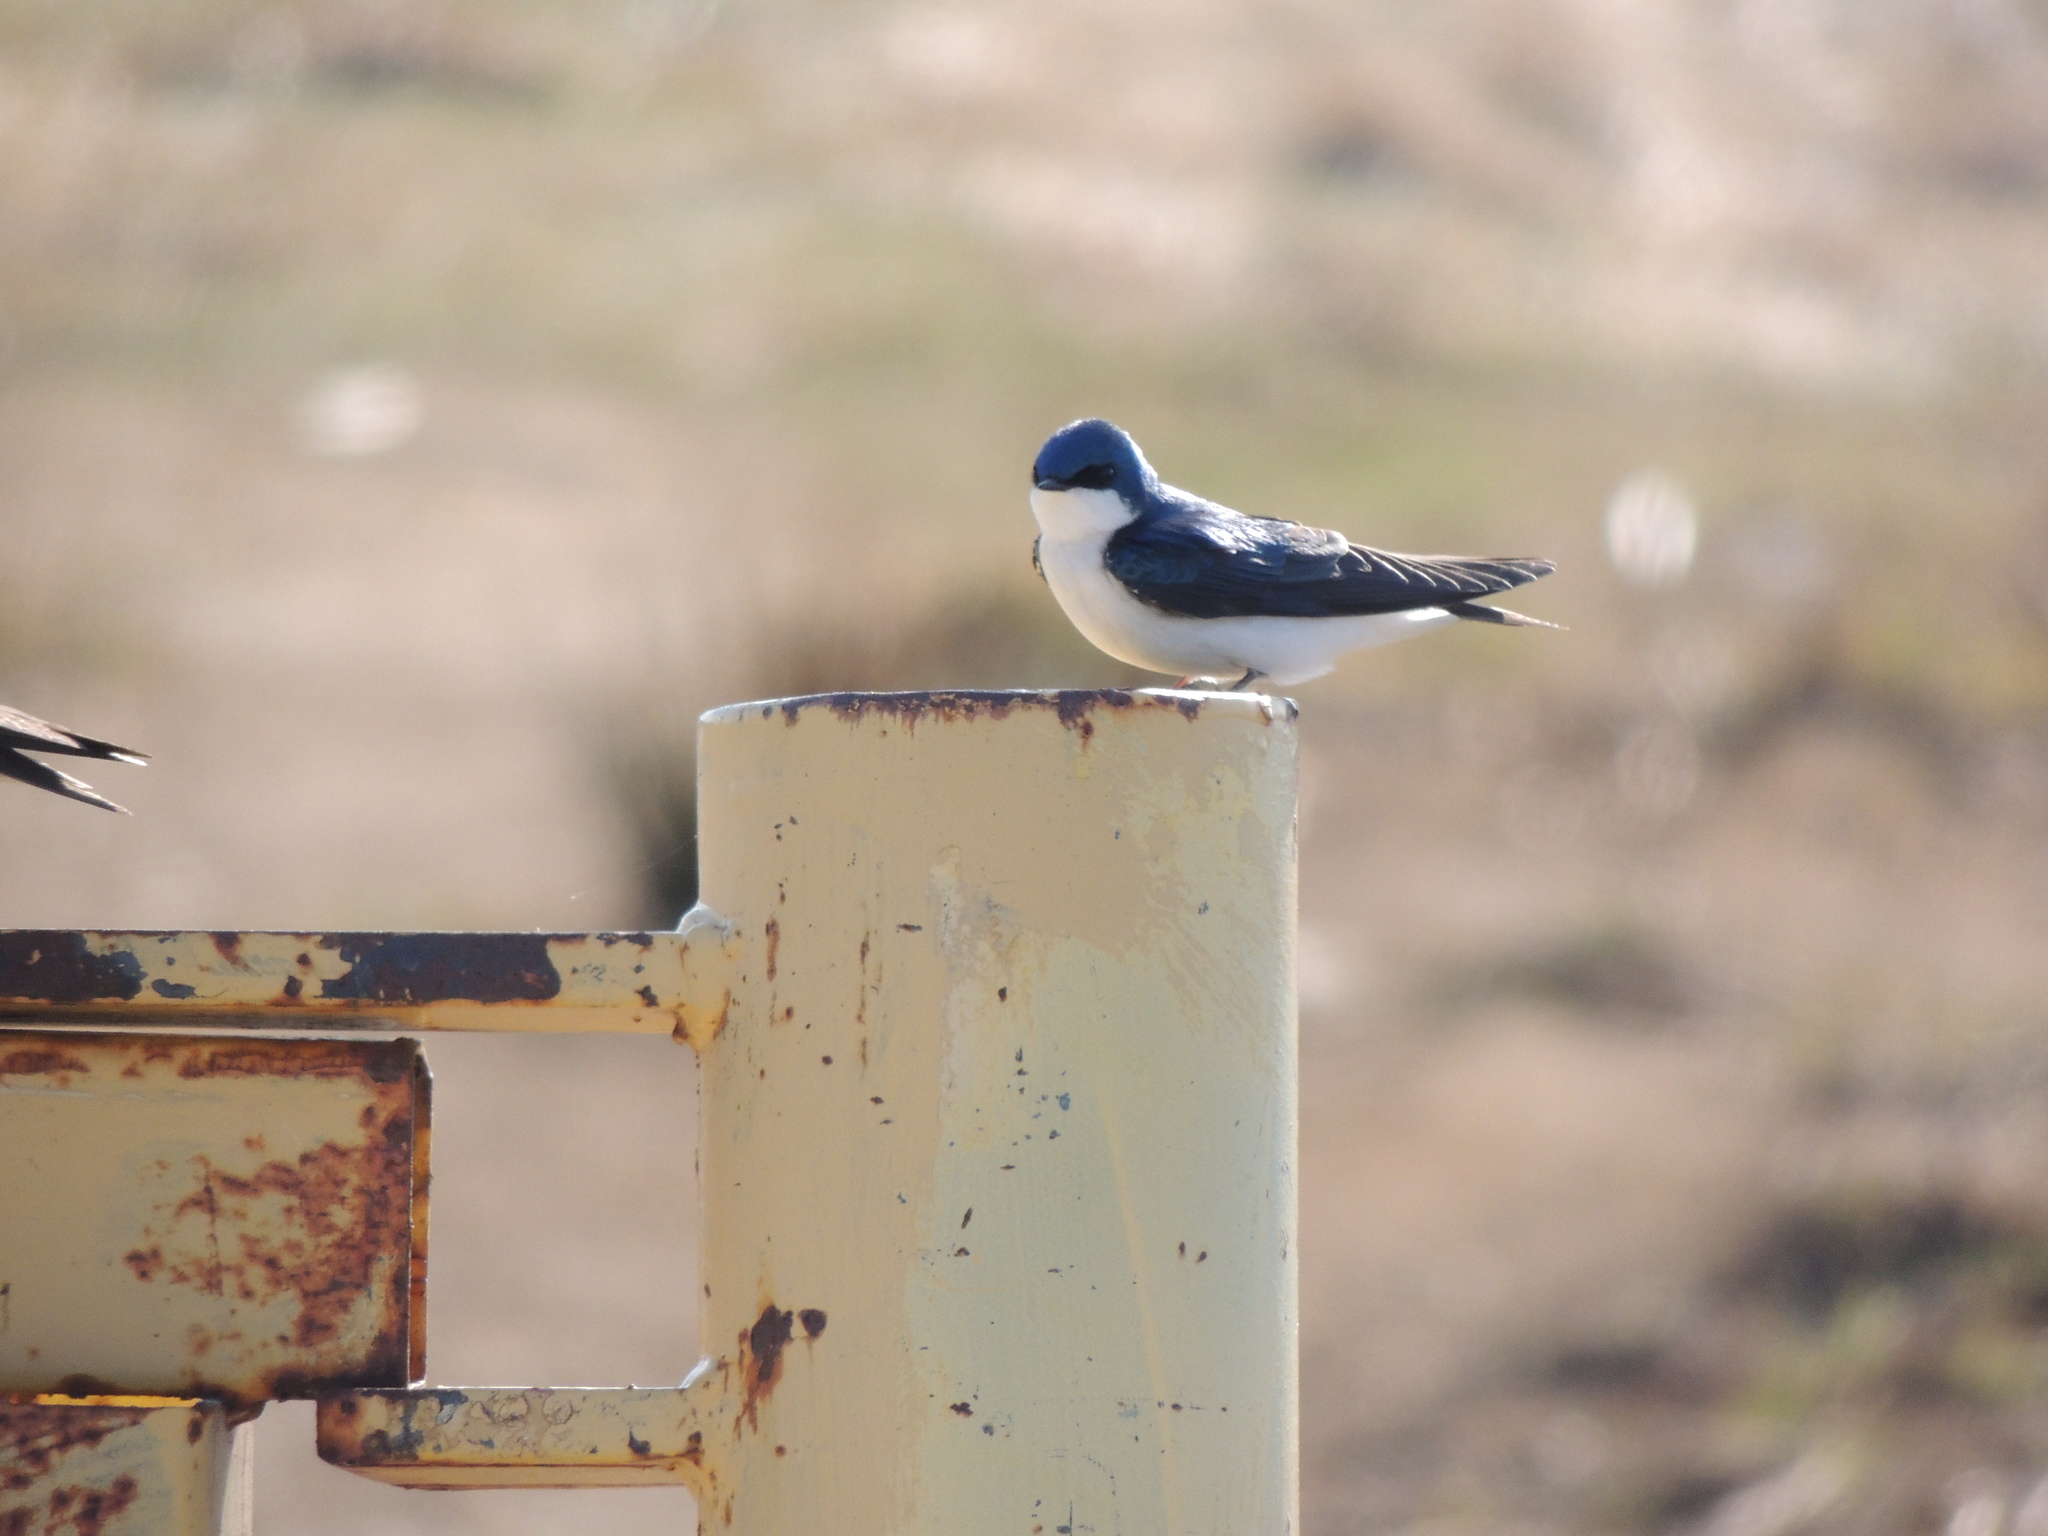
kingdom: Animalia
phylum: Chordata
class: Aves
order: Passeriformes
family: Hirundinidae
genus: Tachycineta
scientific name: Tachycineta bicolor
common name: Tree swallow
